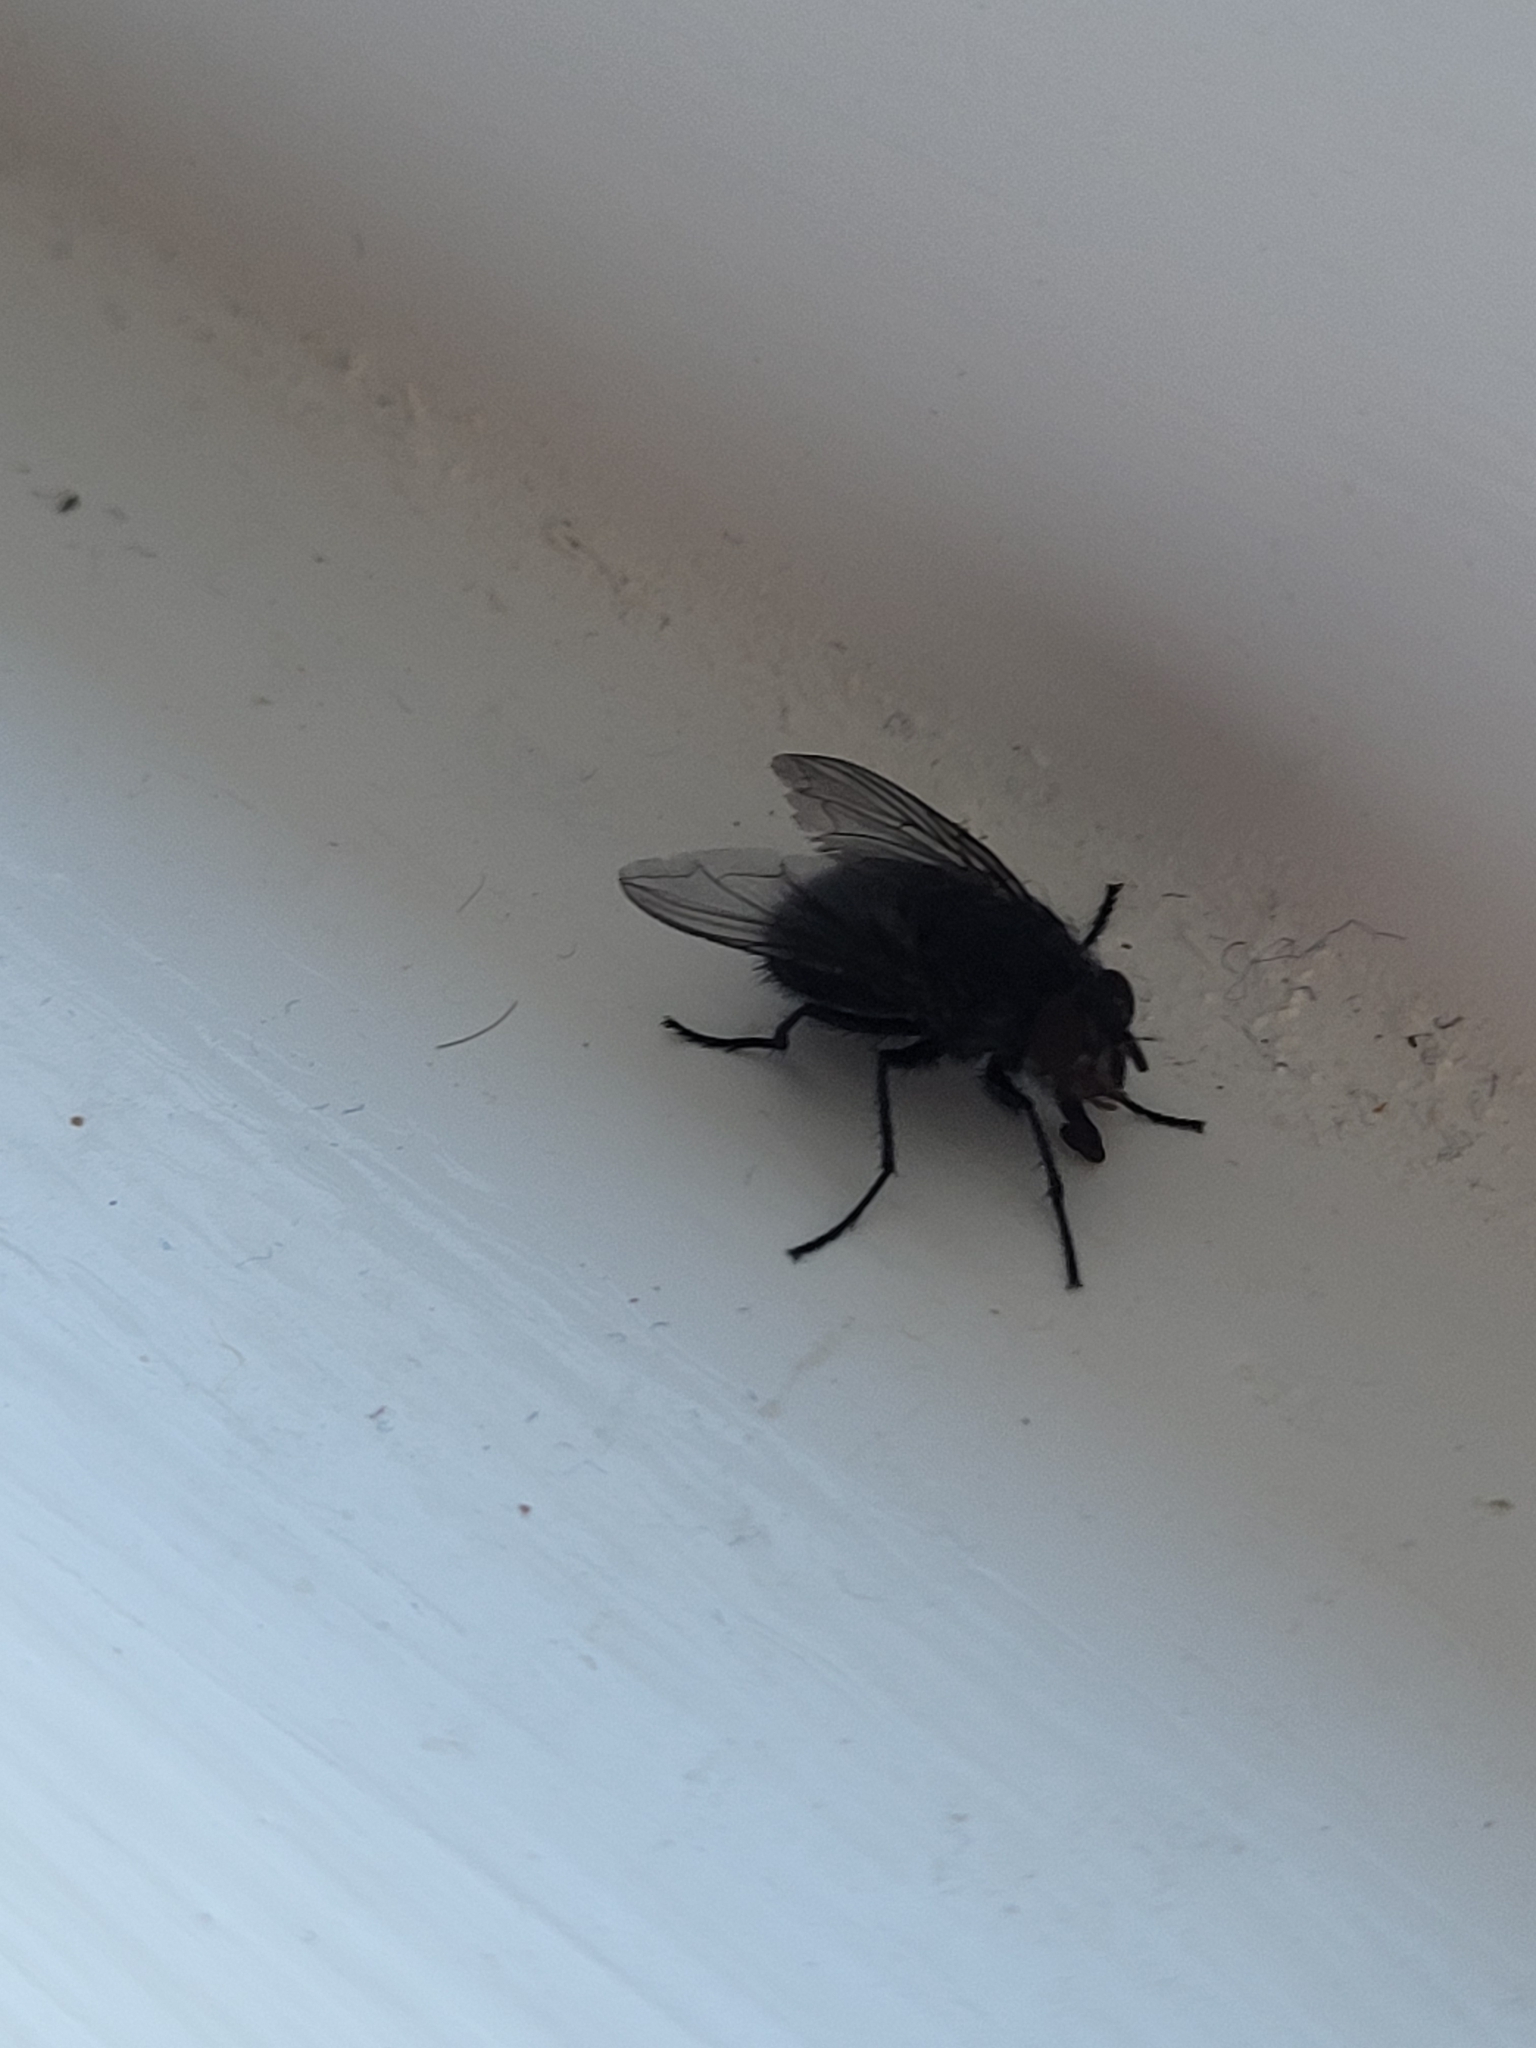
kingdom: Animalia
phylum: Arthropoda
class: Insecta
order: Diptera
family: Calliphoridae
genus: Calliphora
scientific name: Calliphora vicina
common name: Common blow flie
